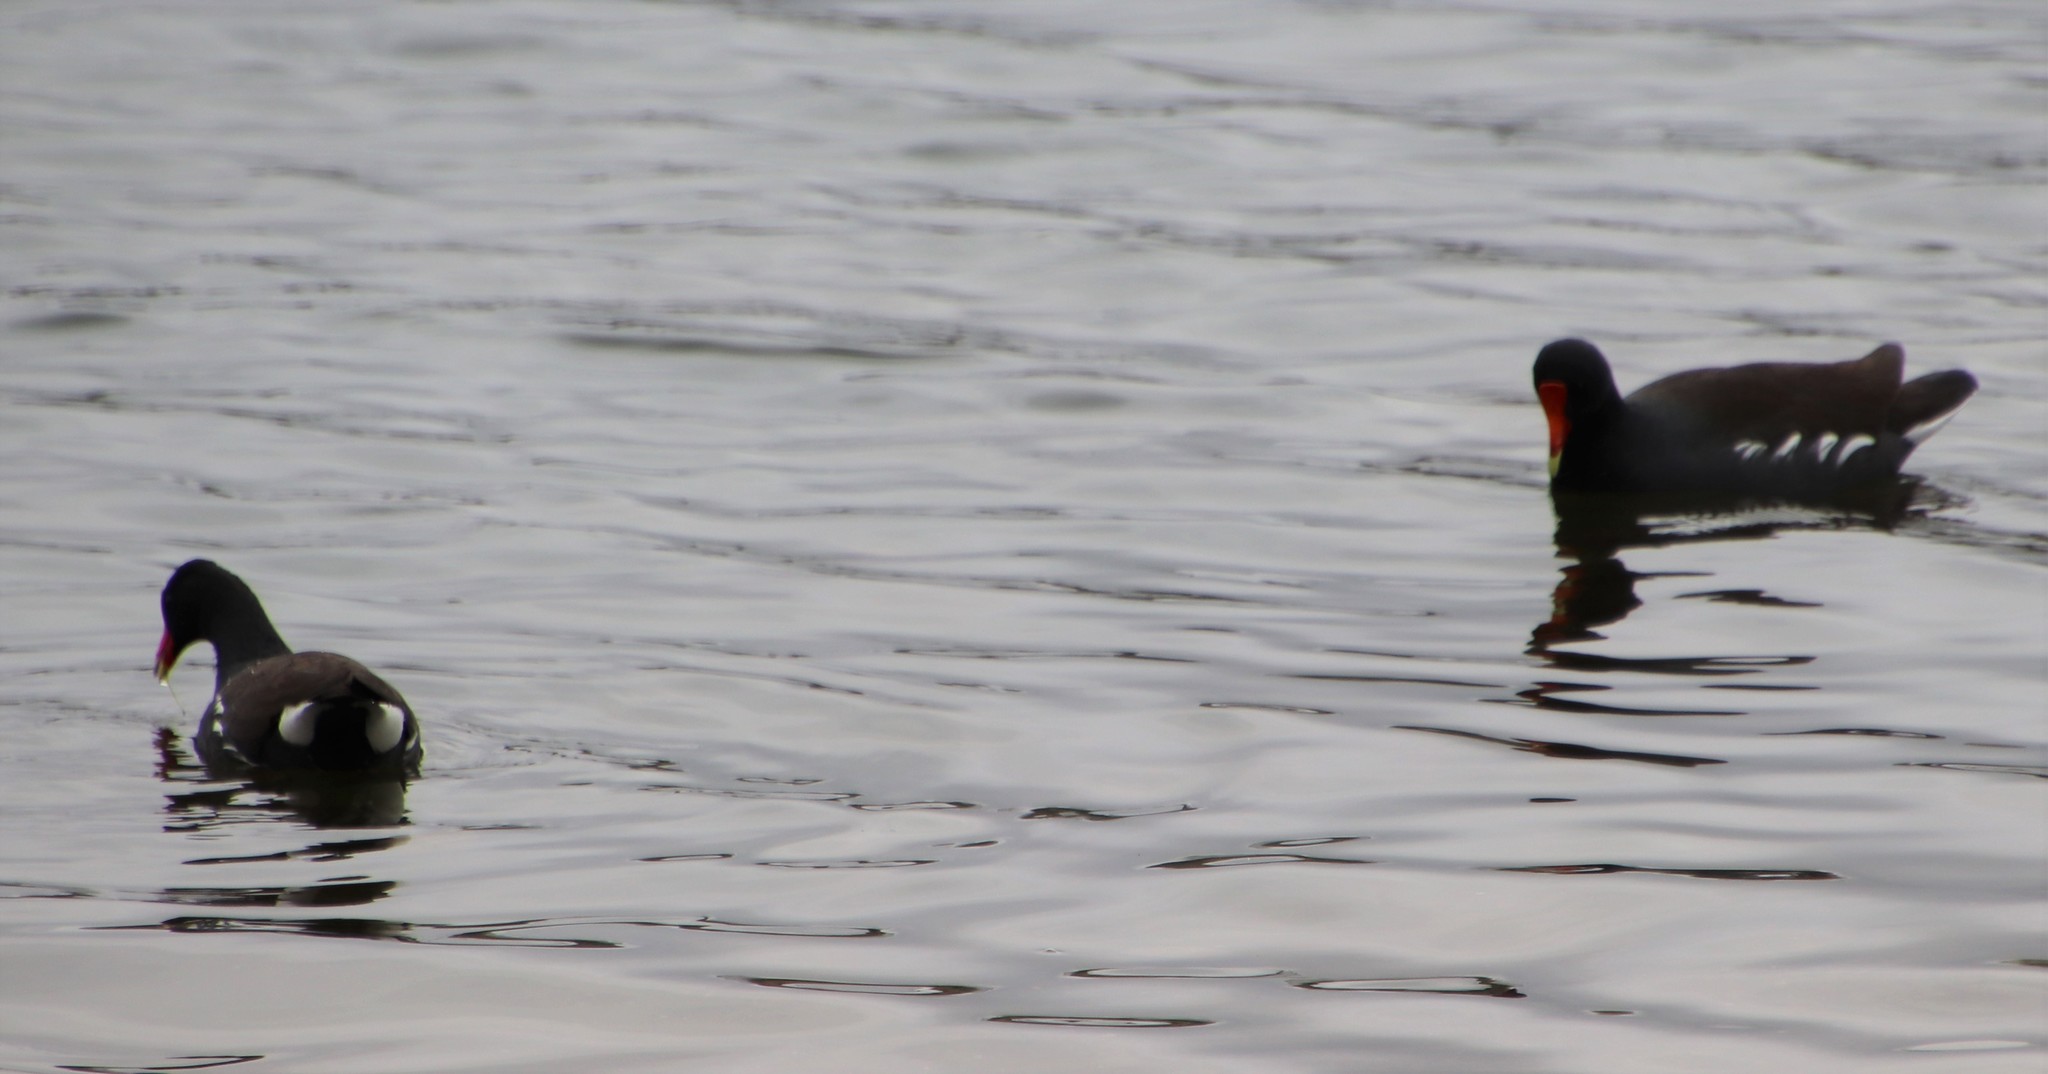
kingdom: Animalia
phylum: Chordata
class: Aves
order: Gruiformes
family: Rallidae
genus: Gallinula
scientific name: Gallinula chloropus
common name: Common moorhen
